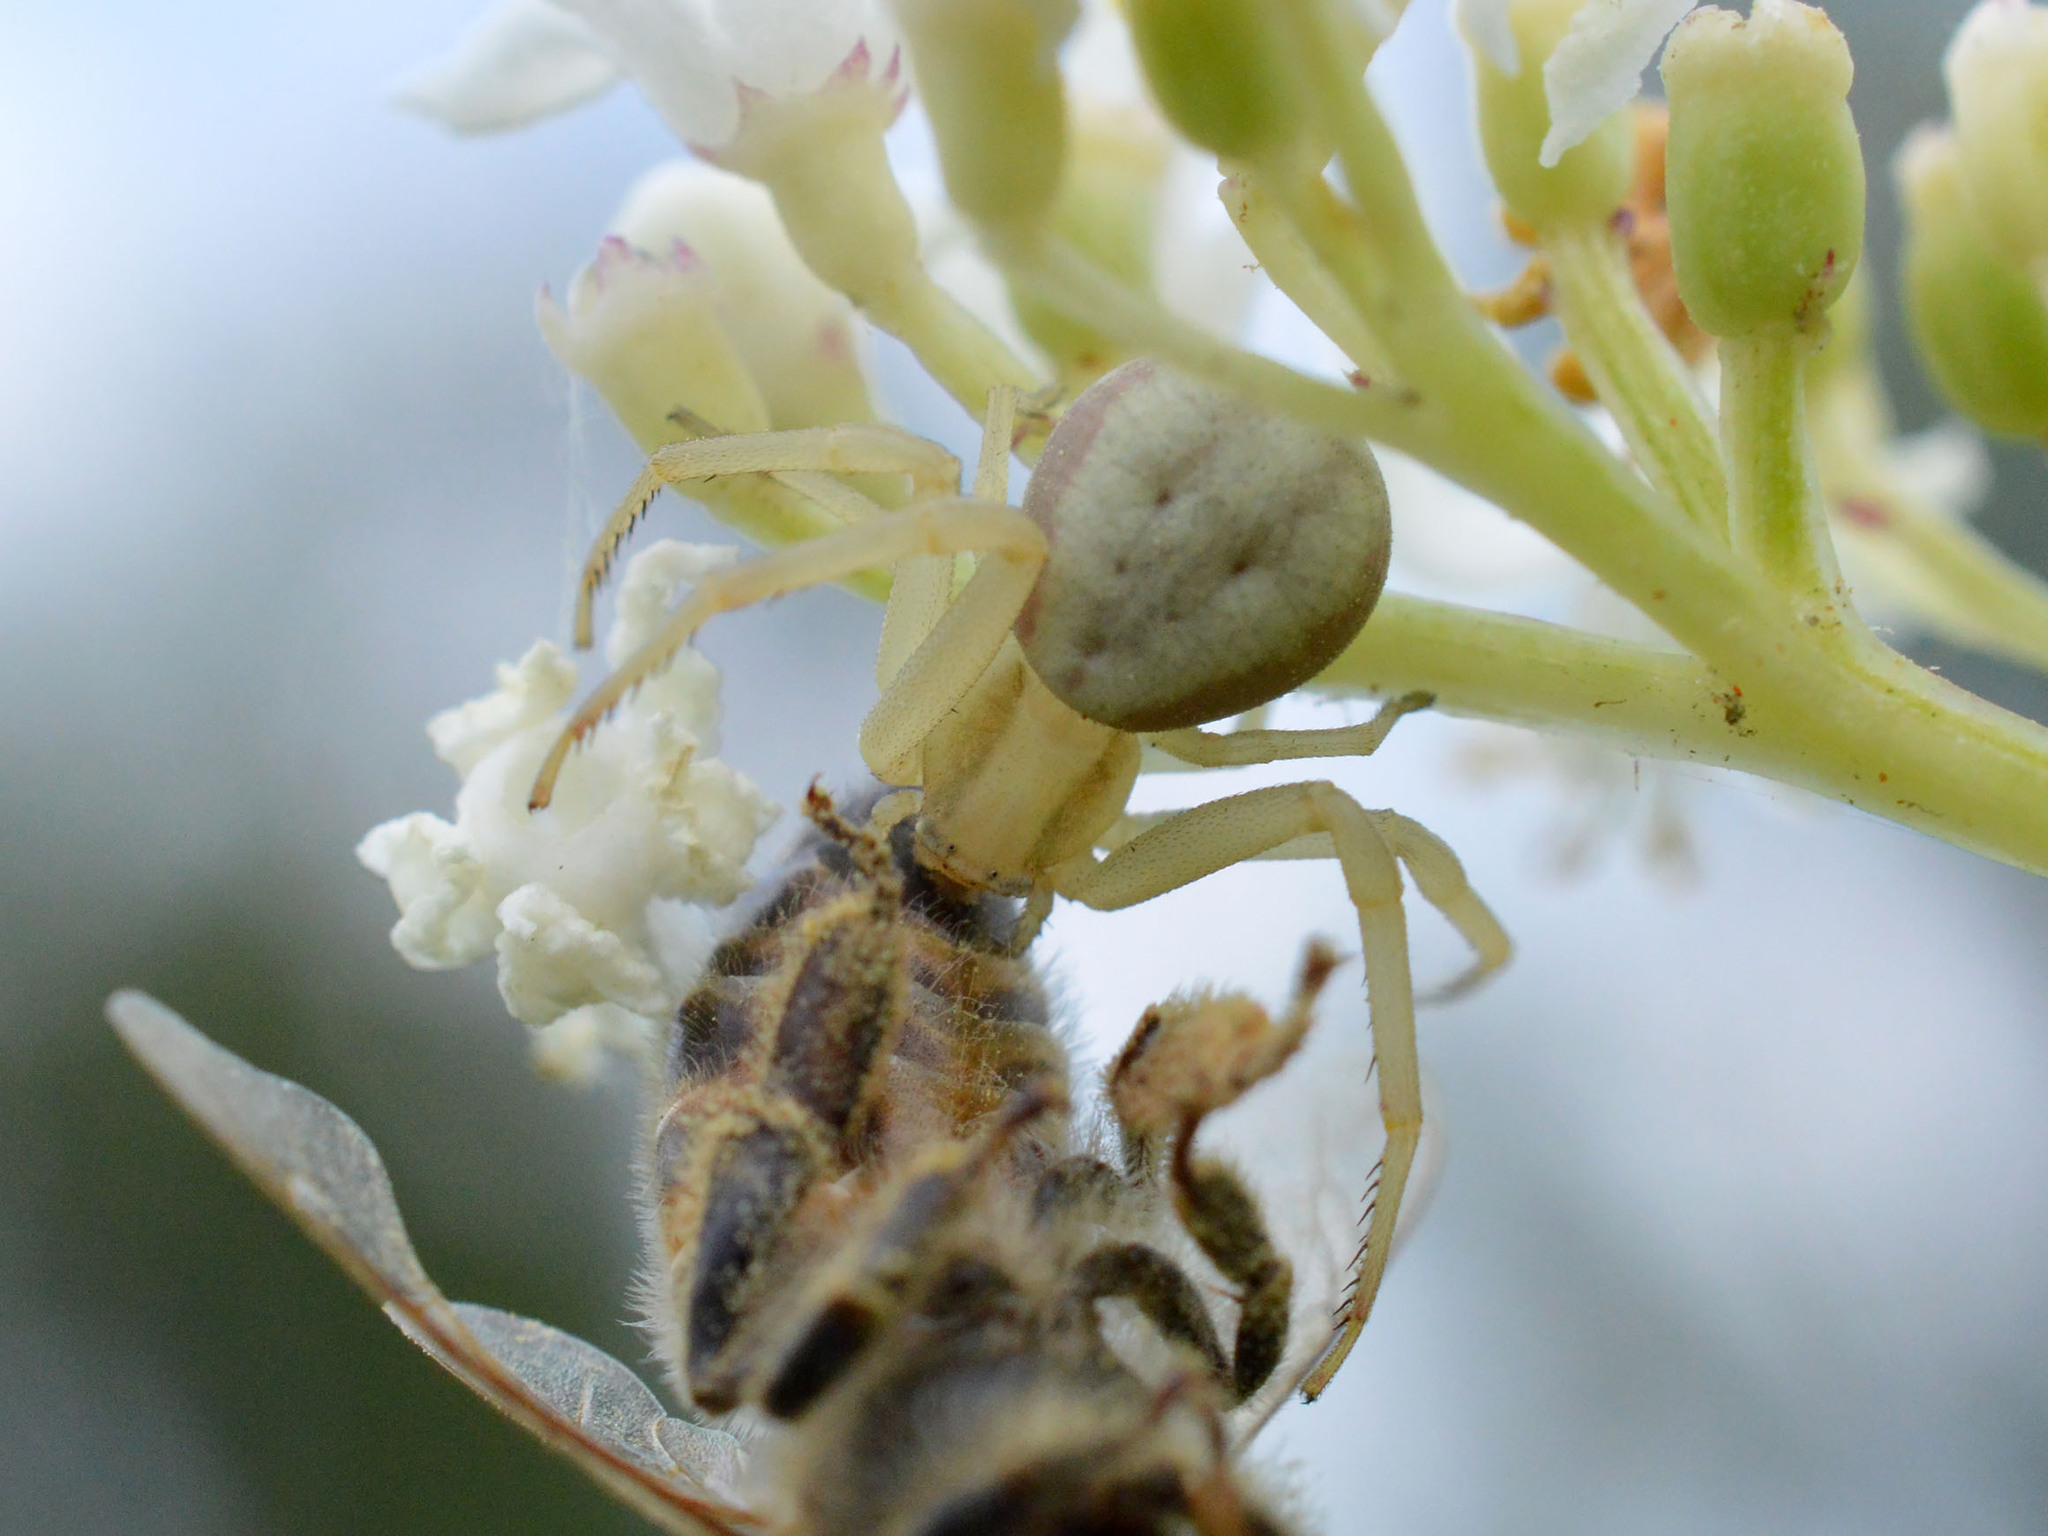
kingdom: Animalia
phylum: Arthropoda
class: Arachnida
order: Araneae
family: Thomisidae
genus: Runcinia
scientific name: Runcinia grammica
